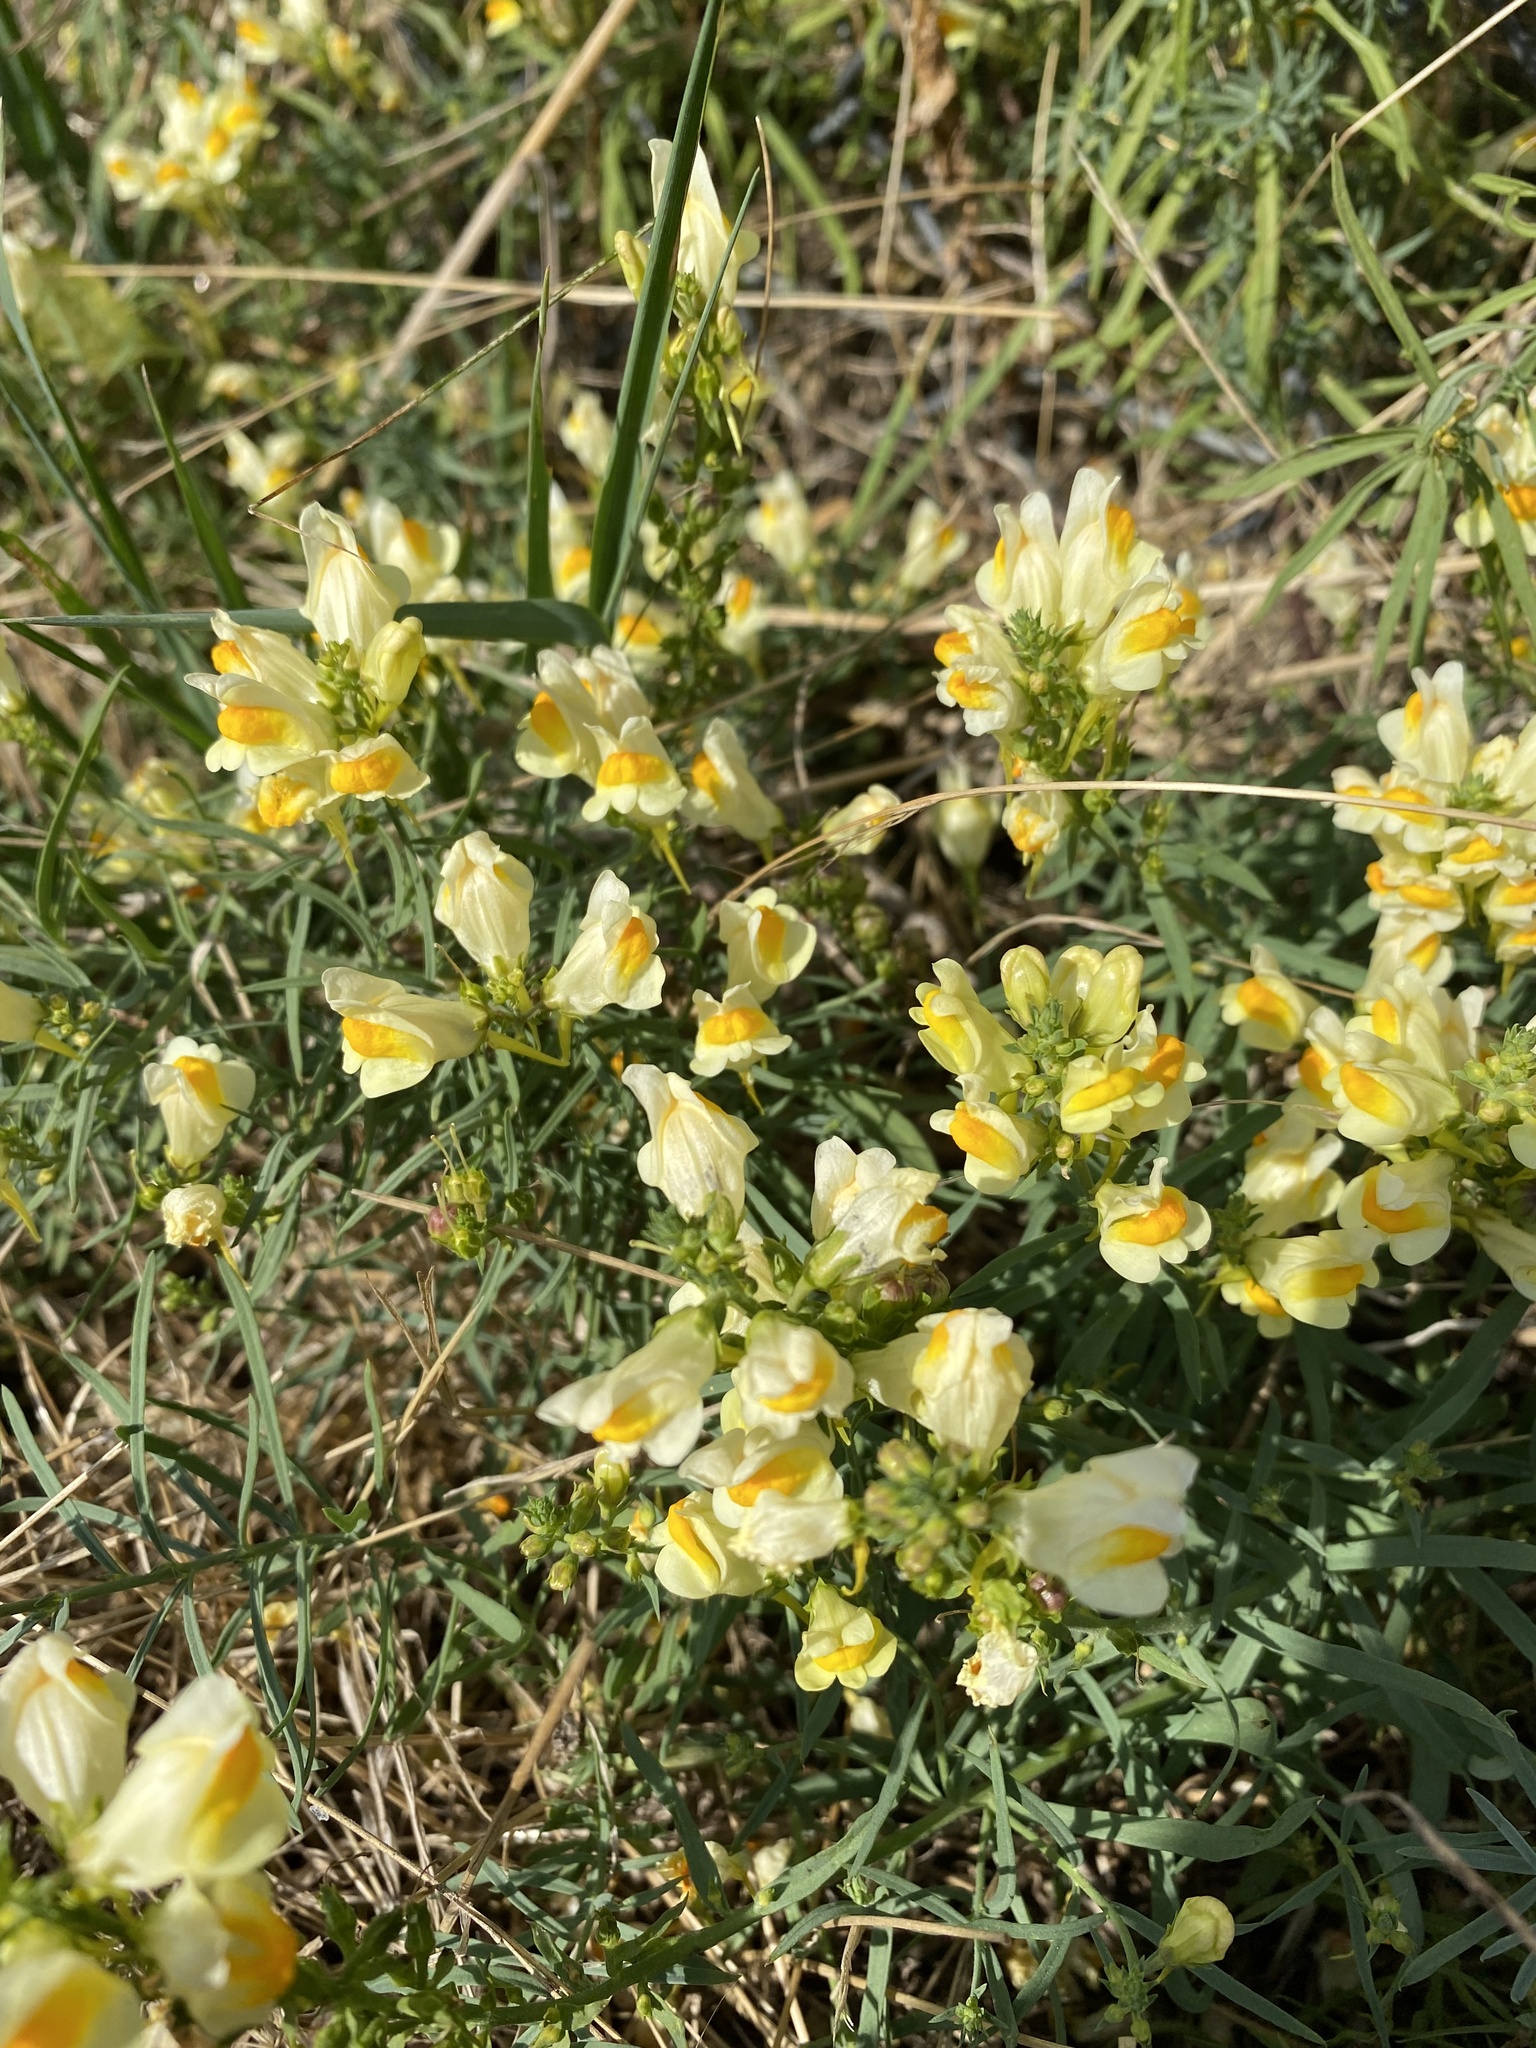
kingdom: Plantae
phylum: Tracheophyta
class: Magnoliopsida
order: Lamiales
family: Plantaginaceae
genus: Linaria
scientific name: Linaria vulgaris
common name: Butter and eggs
